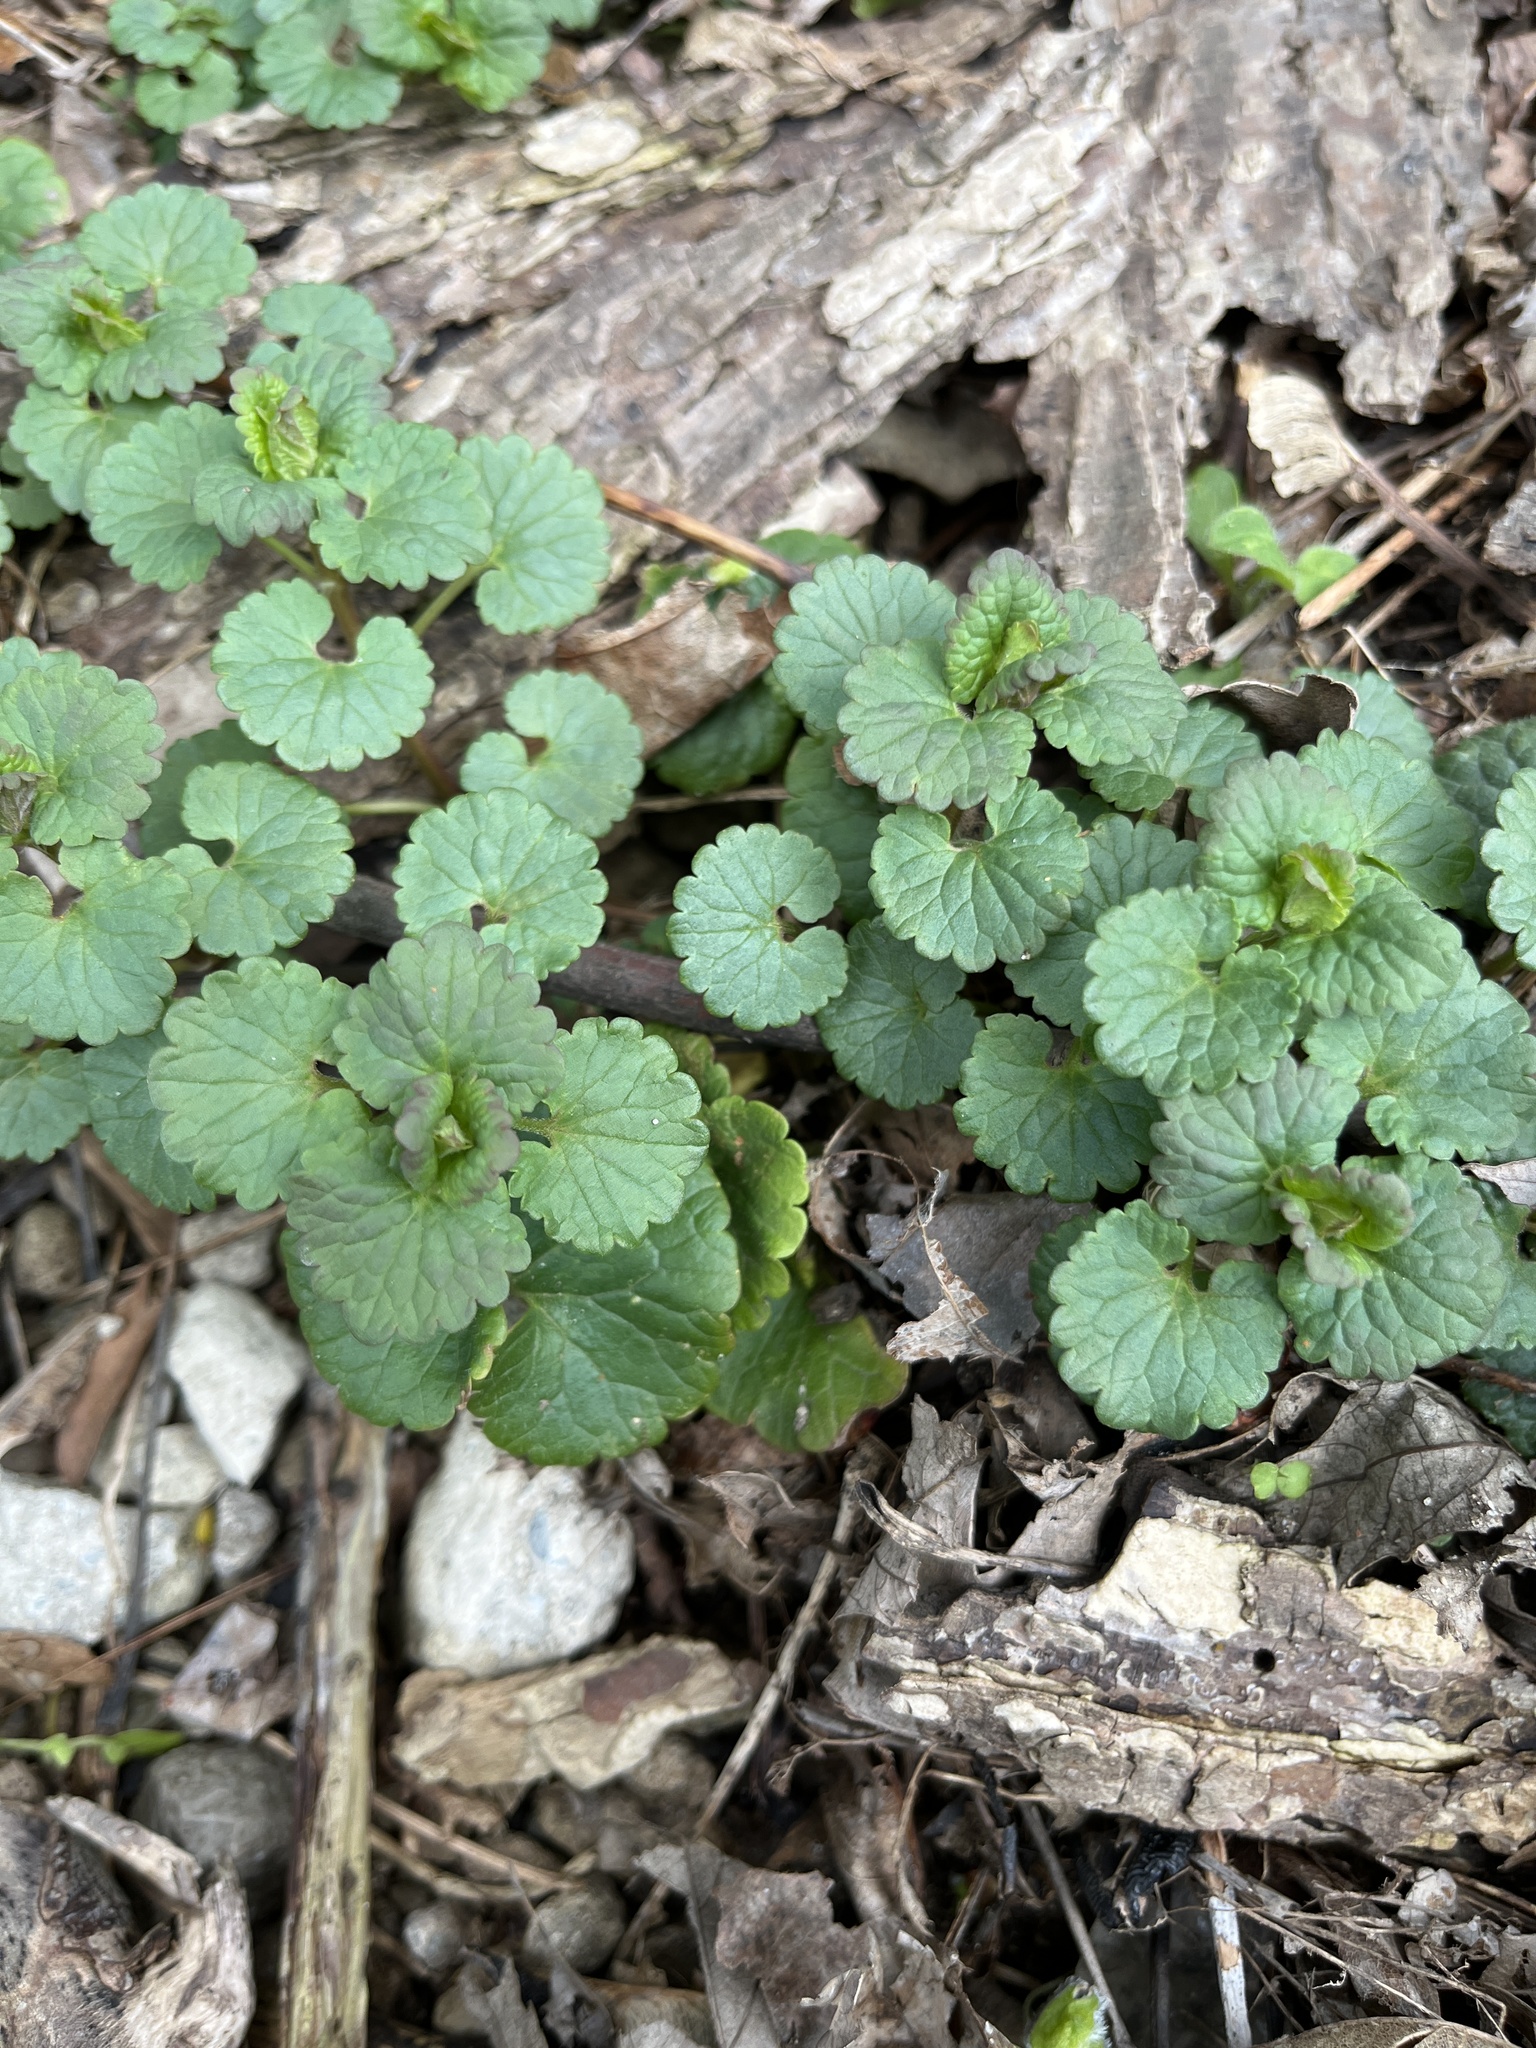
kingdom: Plantae
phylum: Tracheophyta
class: Magnoliopsida
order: Lamiales
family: Lamiaceae
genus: Glechoma
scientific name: Glechoma hederacea
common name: Ground ivy
